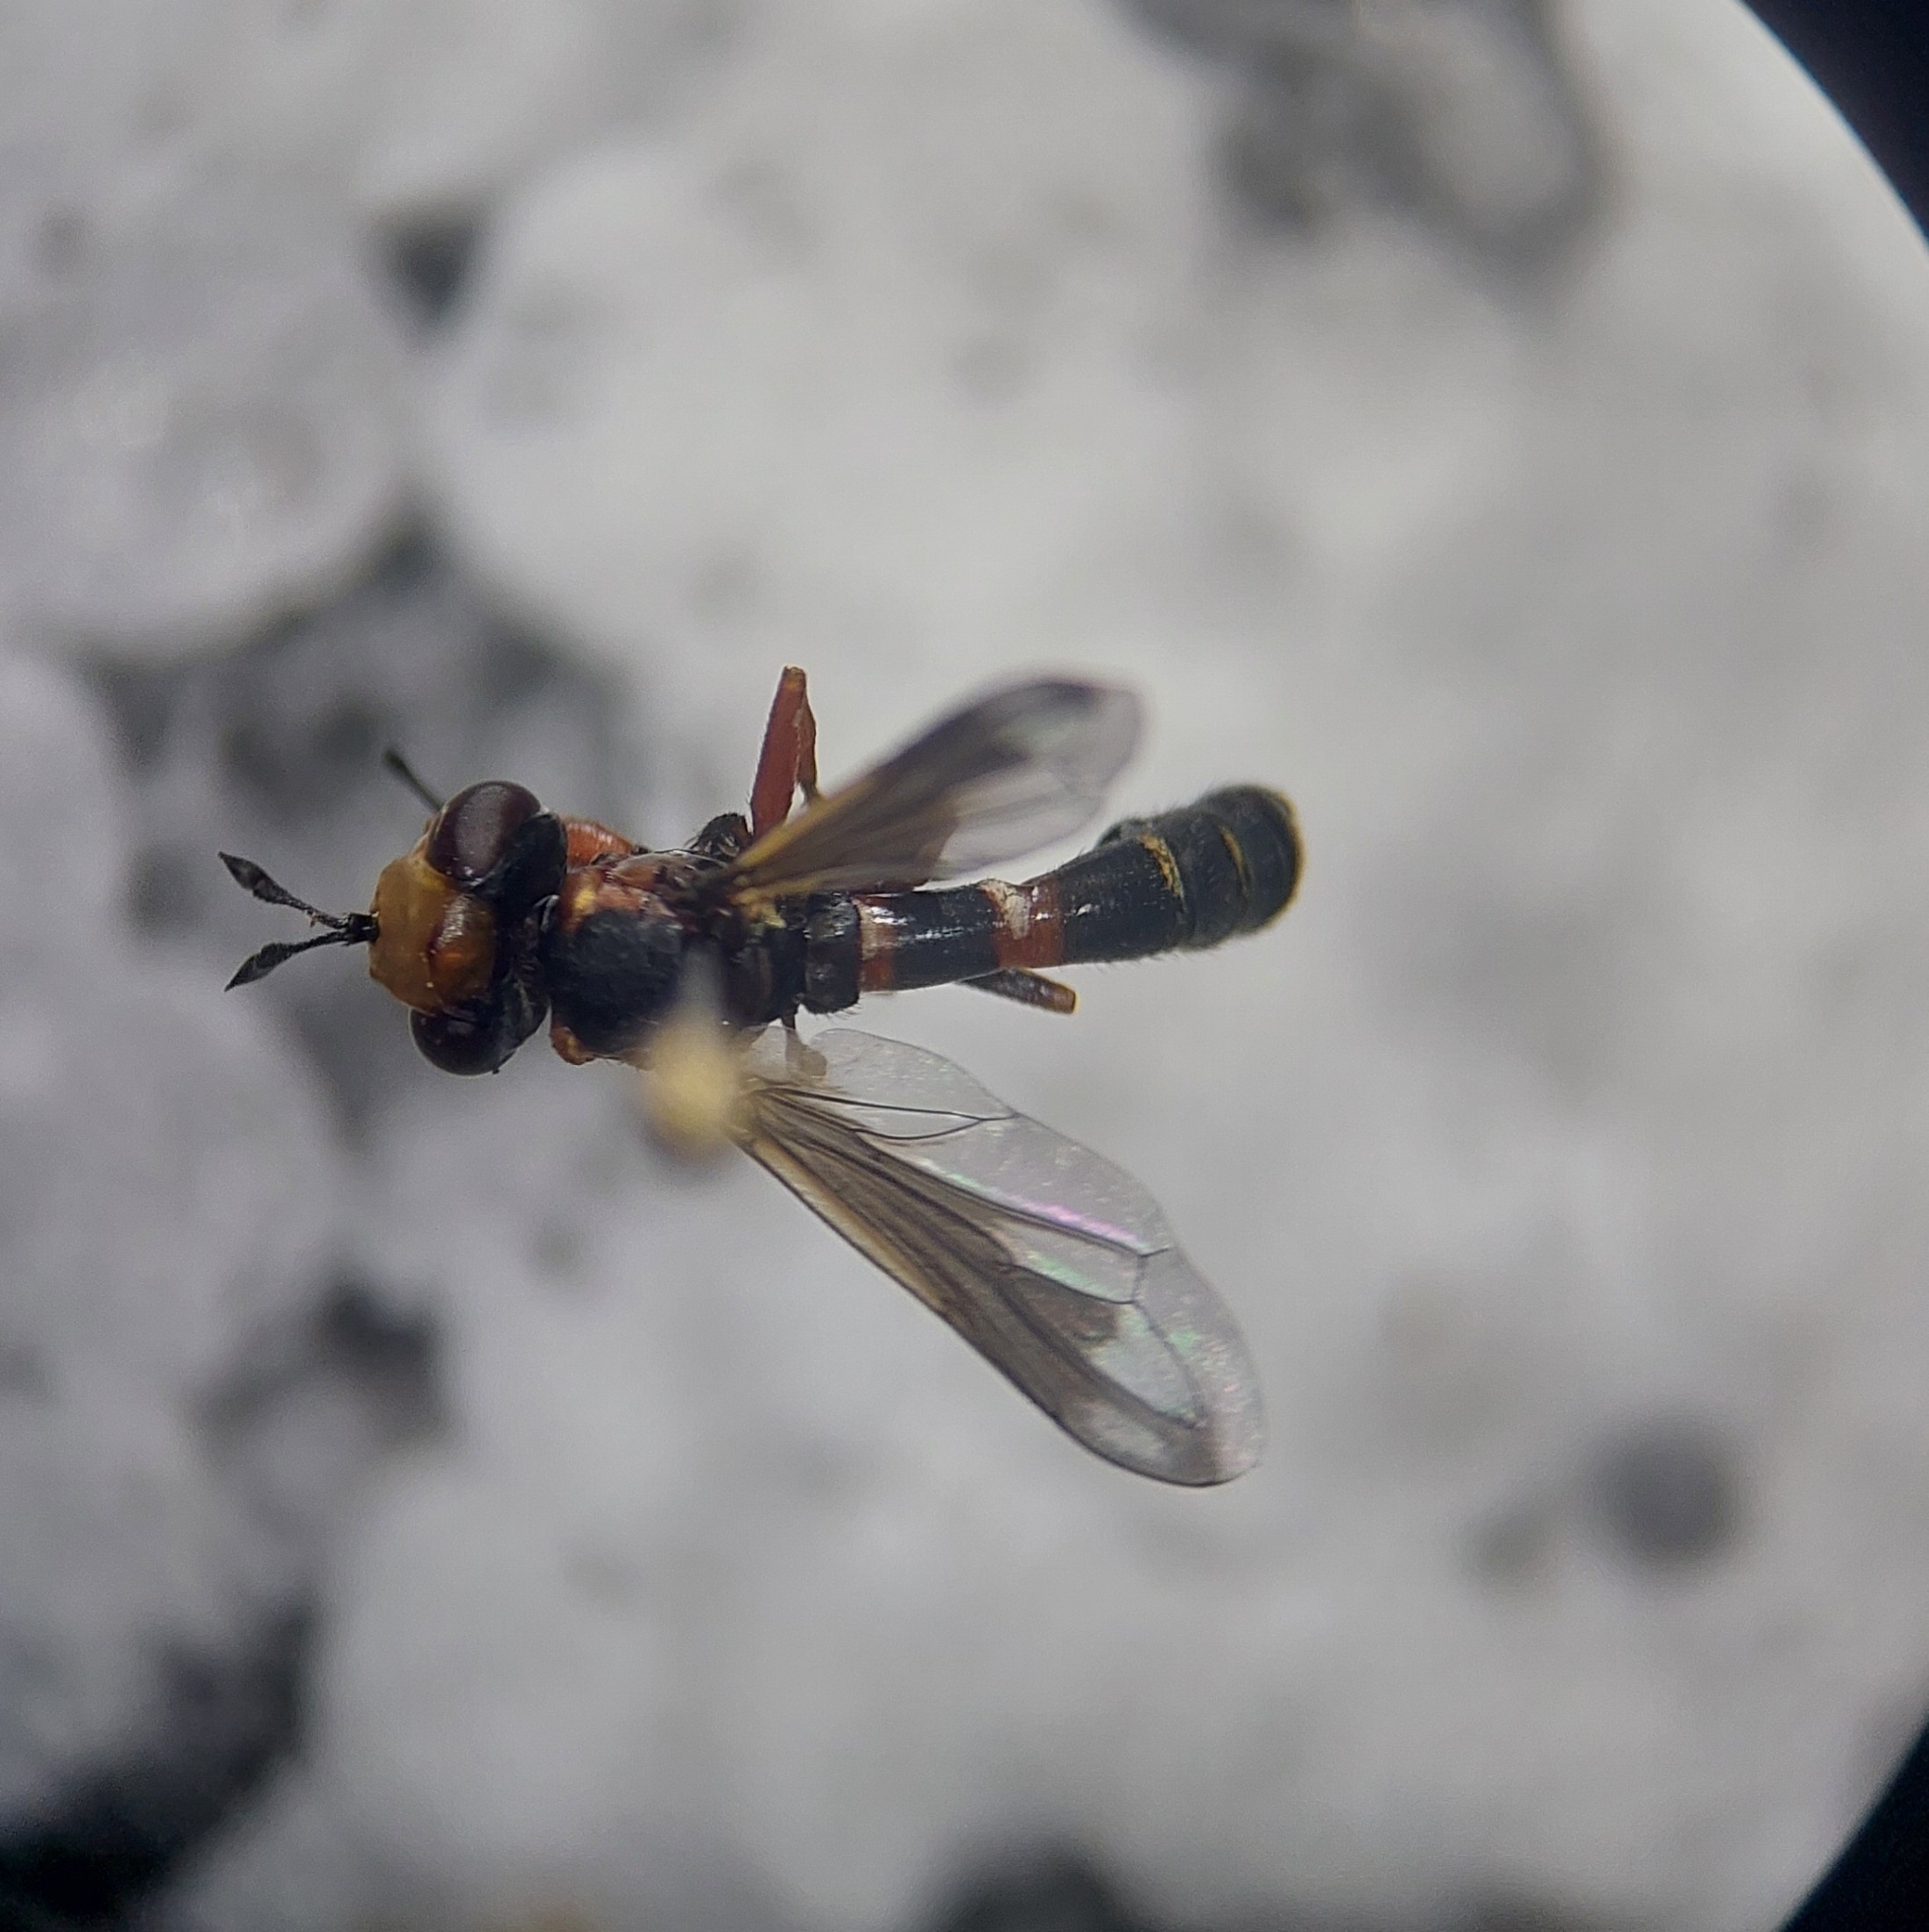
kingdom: Animalia
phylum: Arthropoda
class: Insecta
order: Diptera
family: Conopidae
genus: Physocephala
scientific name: Physocephala vittata
